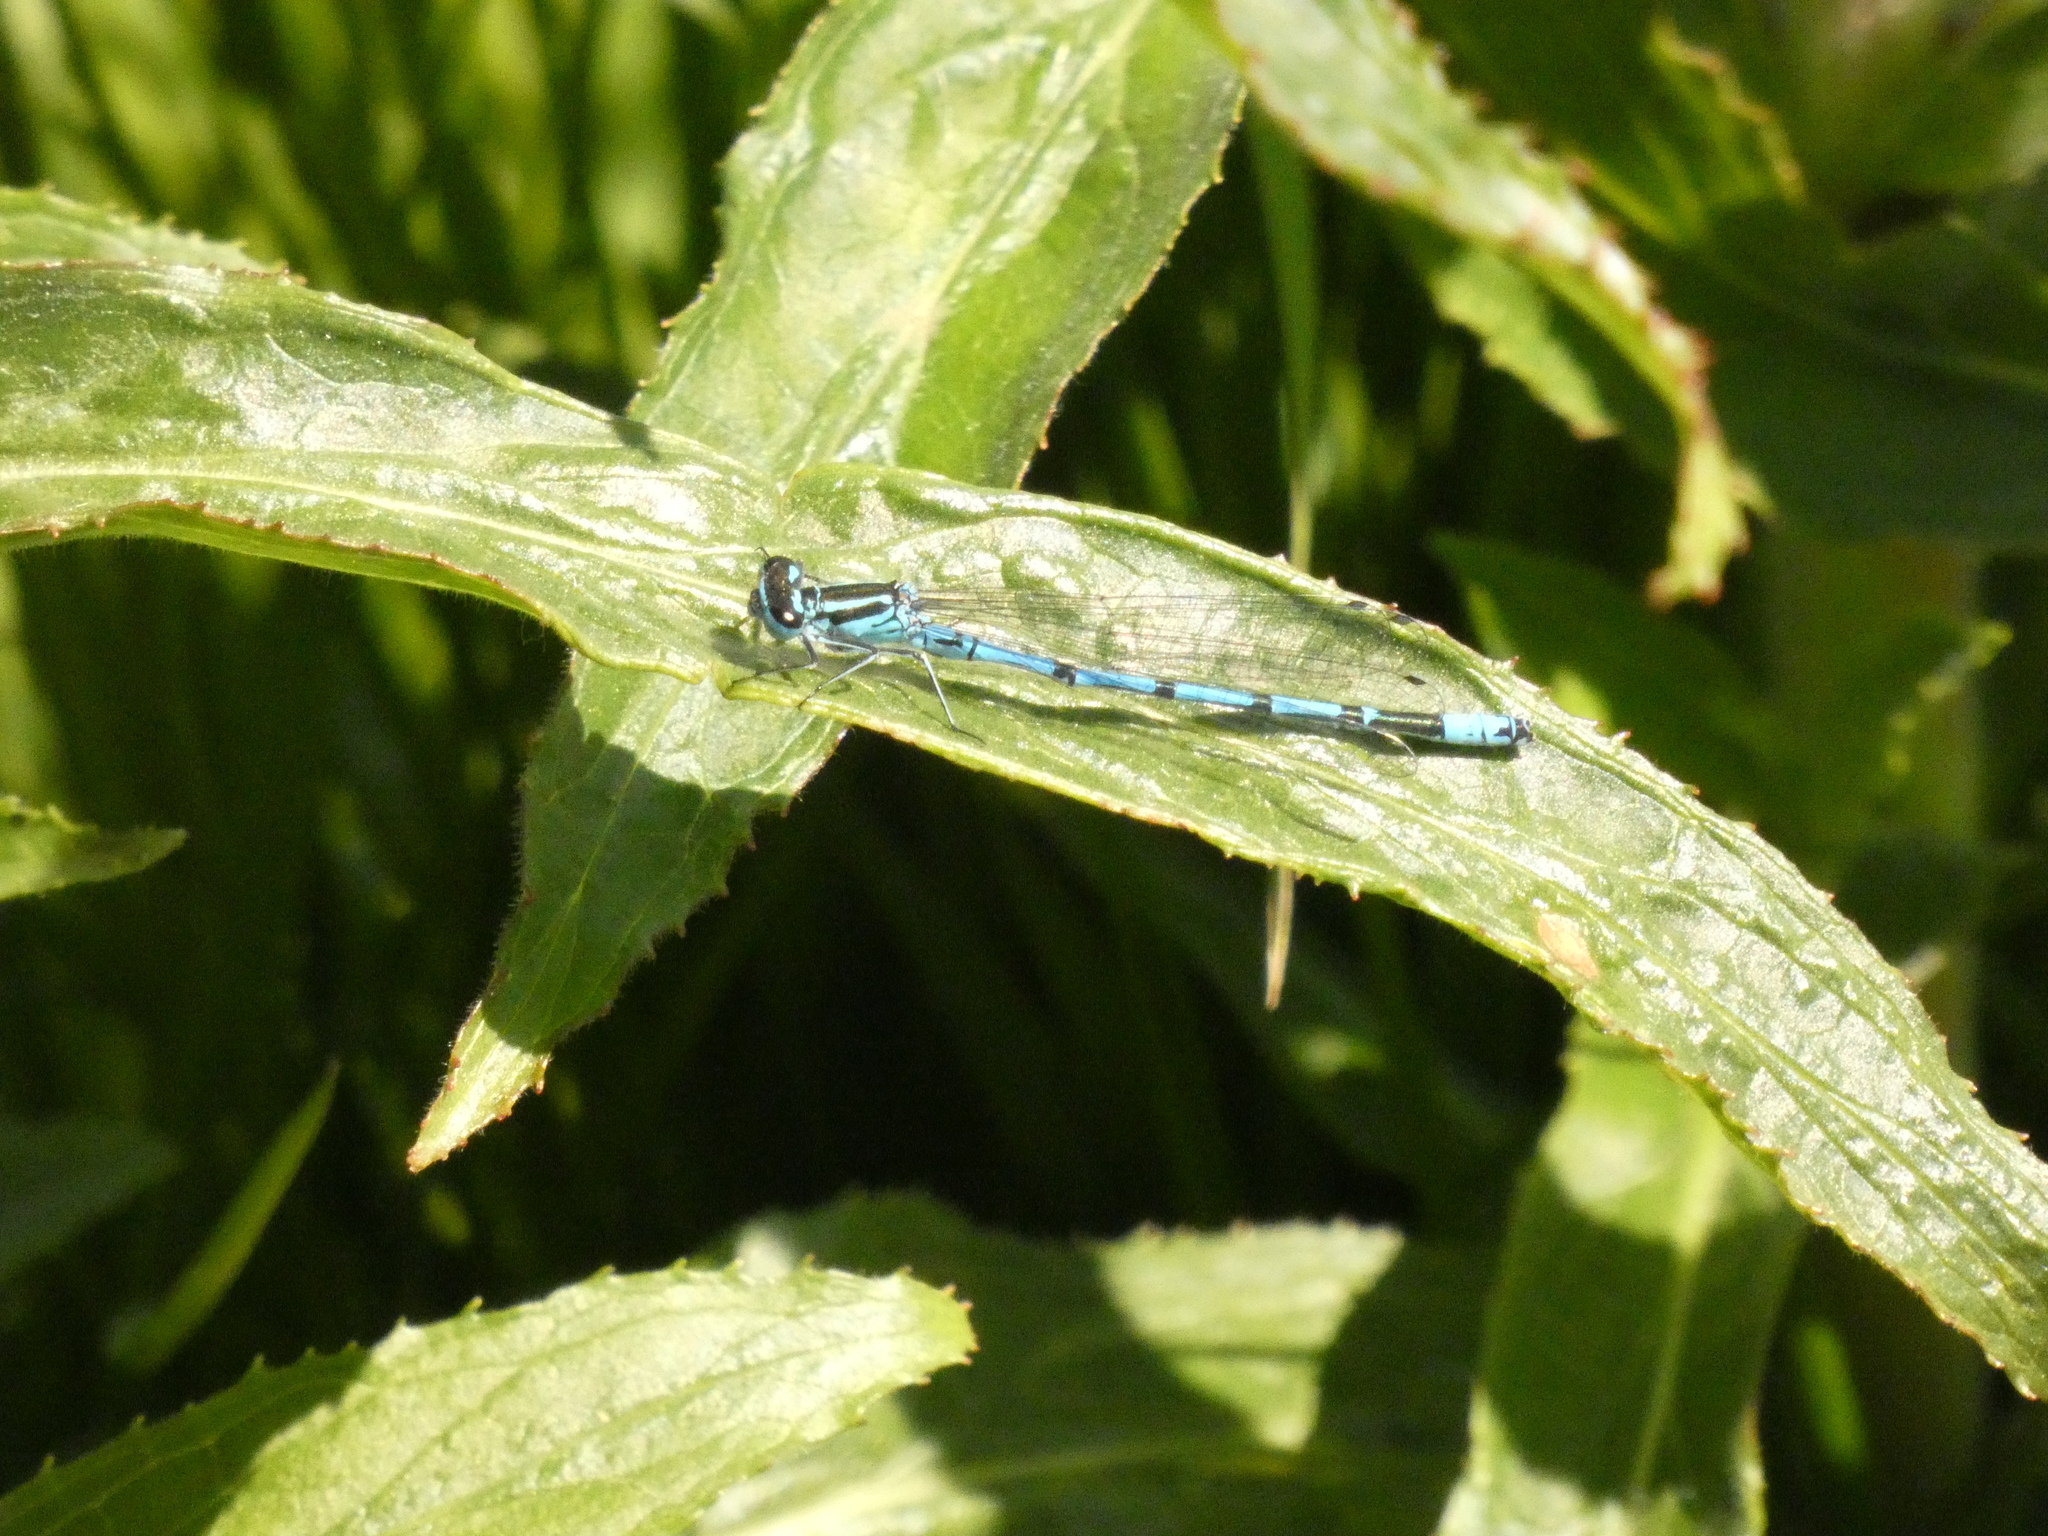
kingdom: Animalia
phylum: Arthropoda
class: Insecta
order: Odonata
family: Coenagrionidae
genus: Coenagrion
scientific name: Coenagrion puella
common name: Azure damselfly
